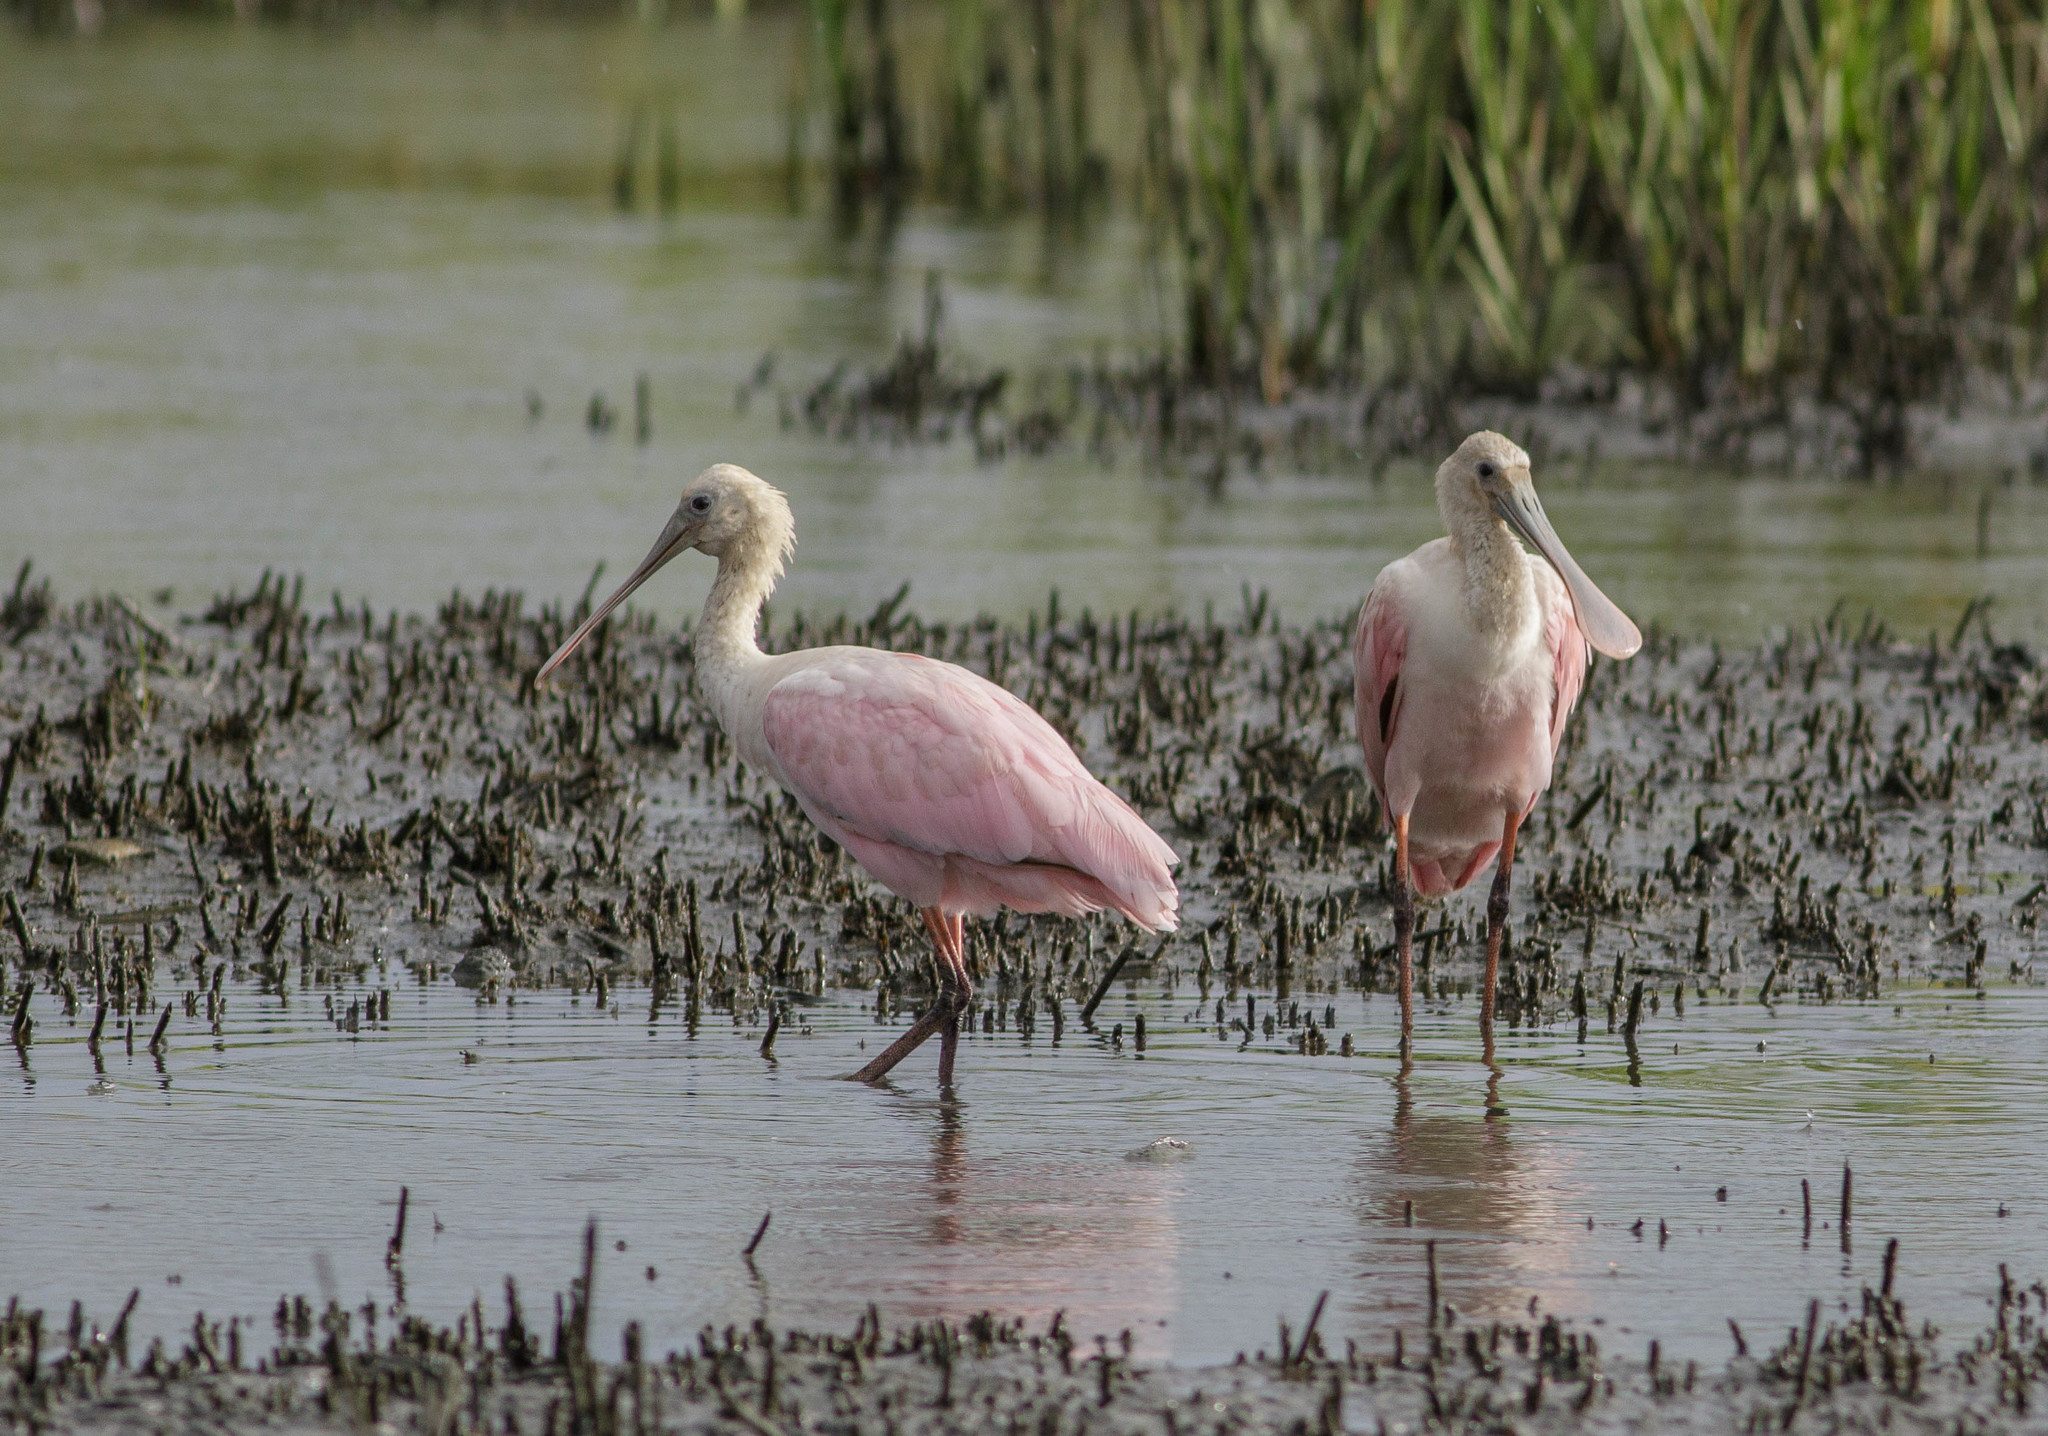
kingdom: Animalia
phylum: Chordata
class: Aves
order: Pelecaniformes
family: Threskiornithidae
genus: Platalea
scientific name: Platalea ajaja
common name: Roseate spoonbill
